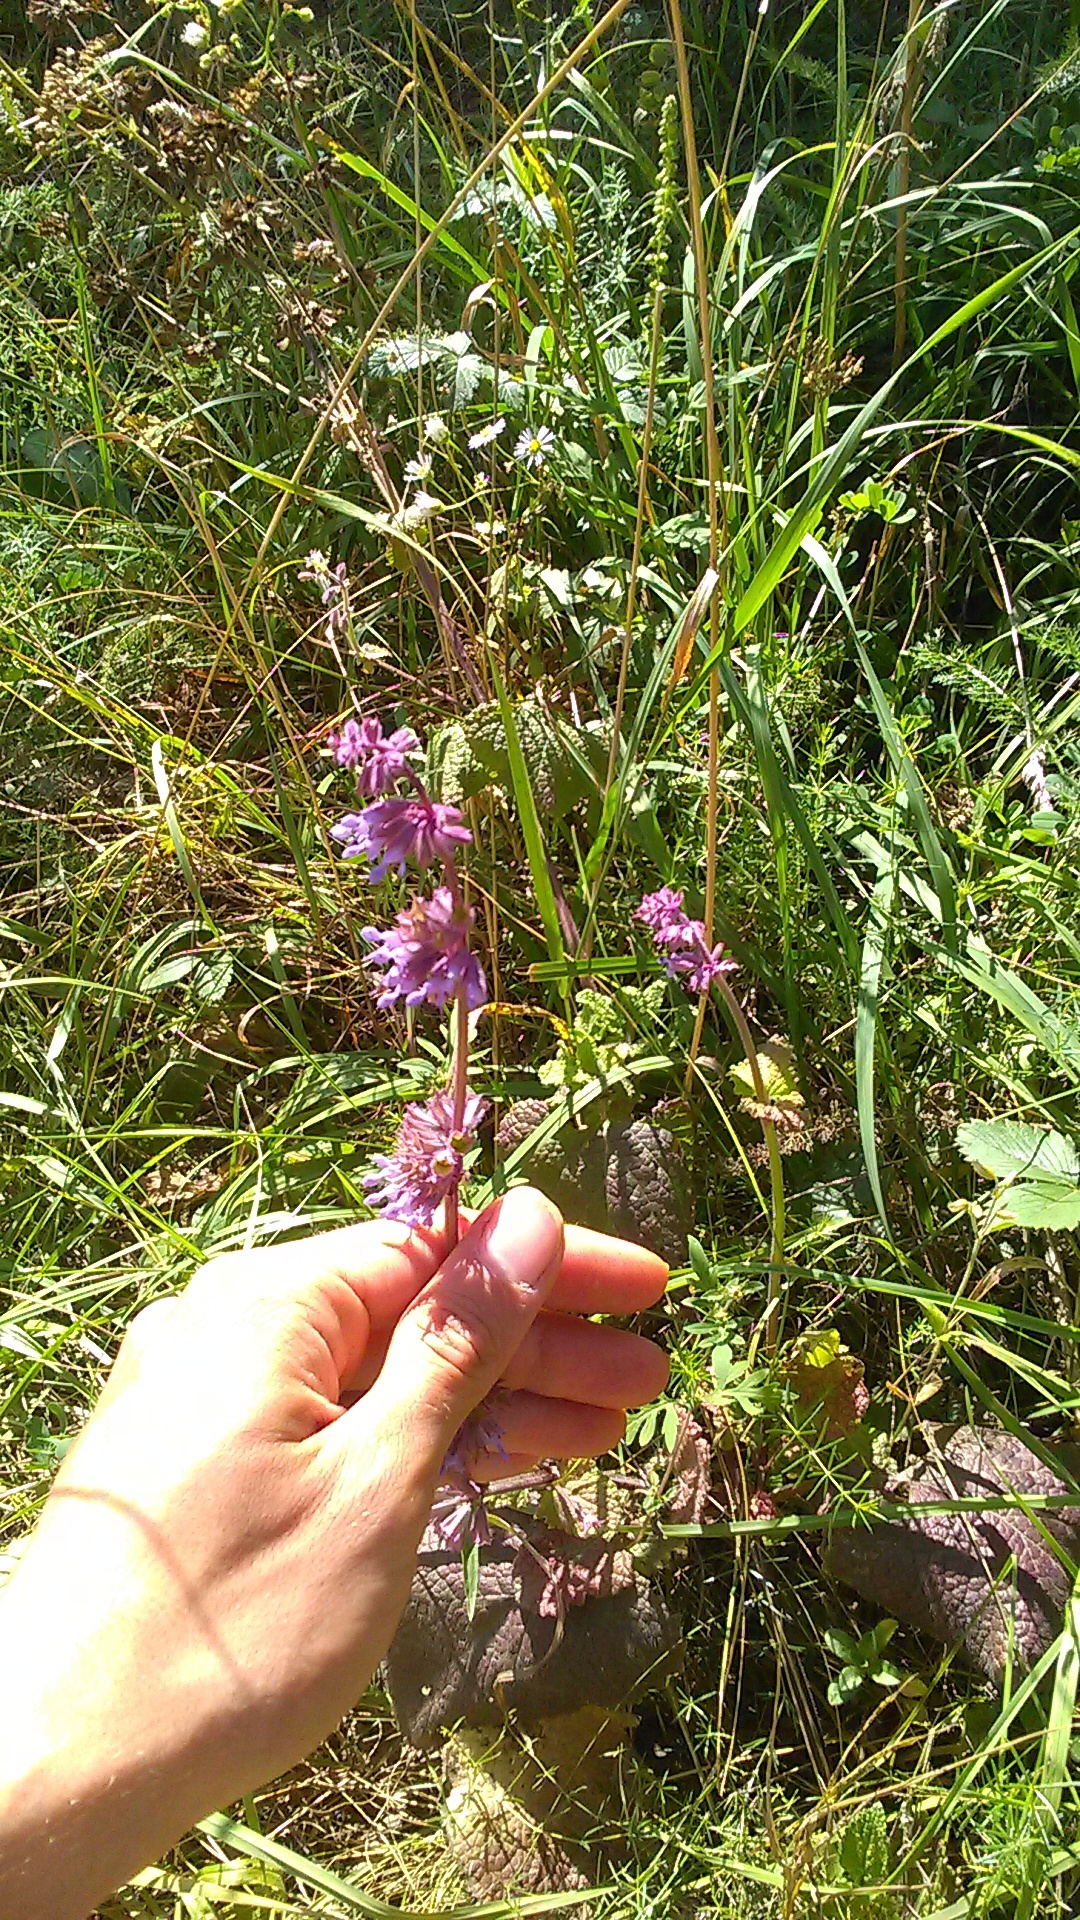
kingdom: Plantae
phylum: Tracheophyta
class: Magnoliopsida
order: Lamiales
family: Lamiaceae
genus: Salvia
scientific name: Salvia verticillata
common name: Whorled clary
